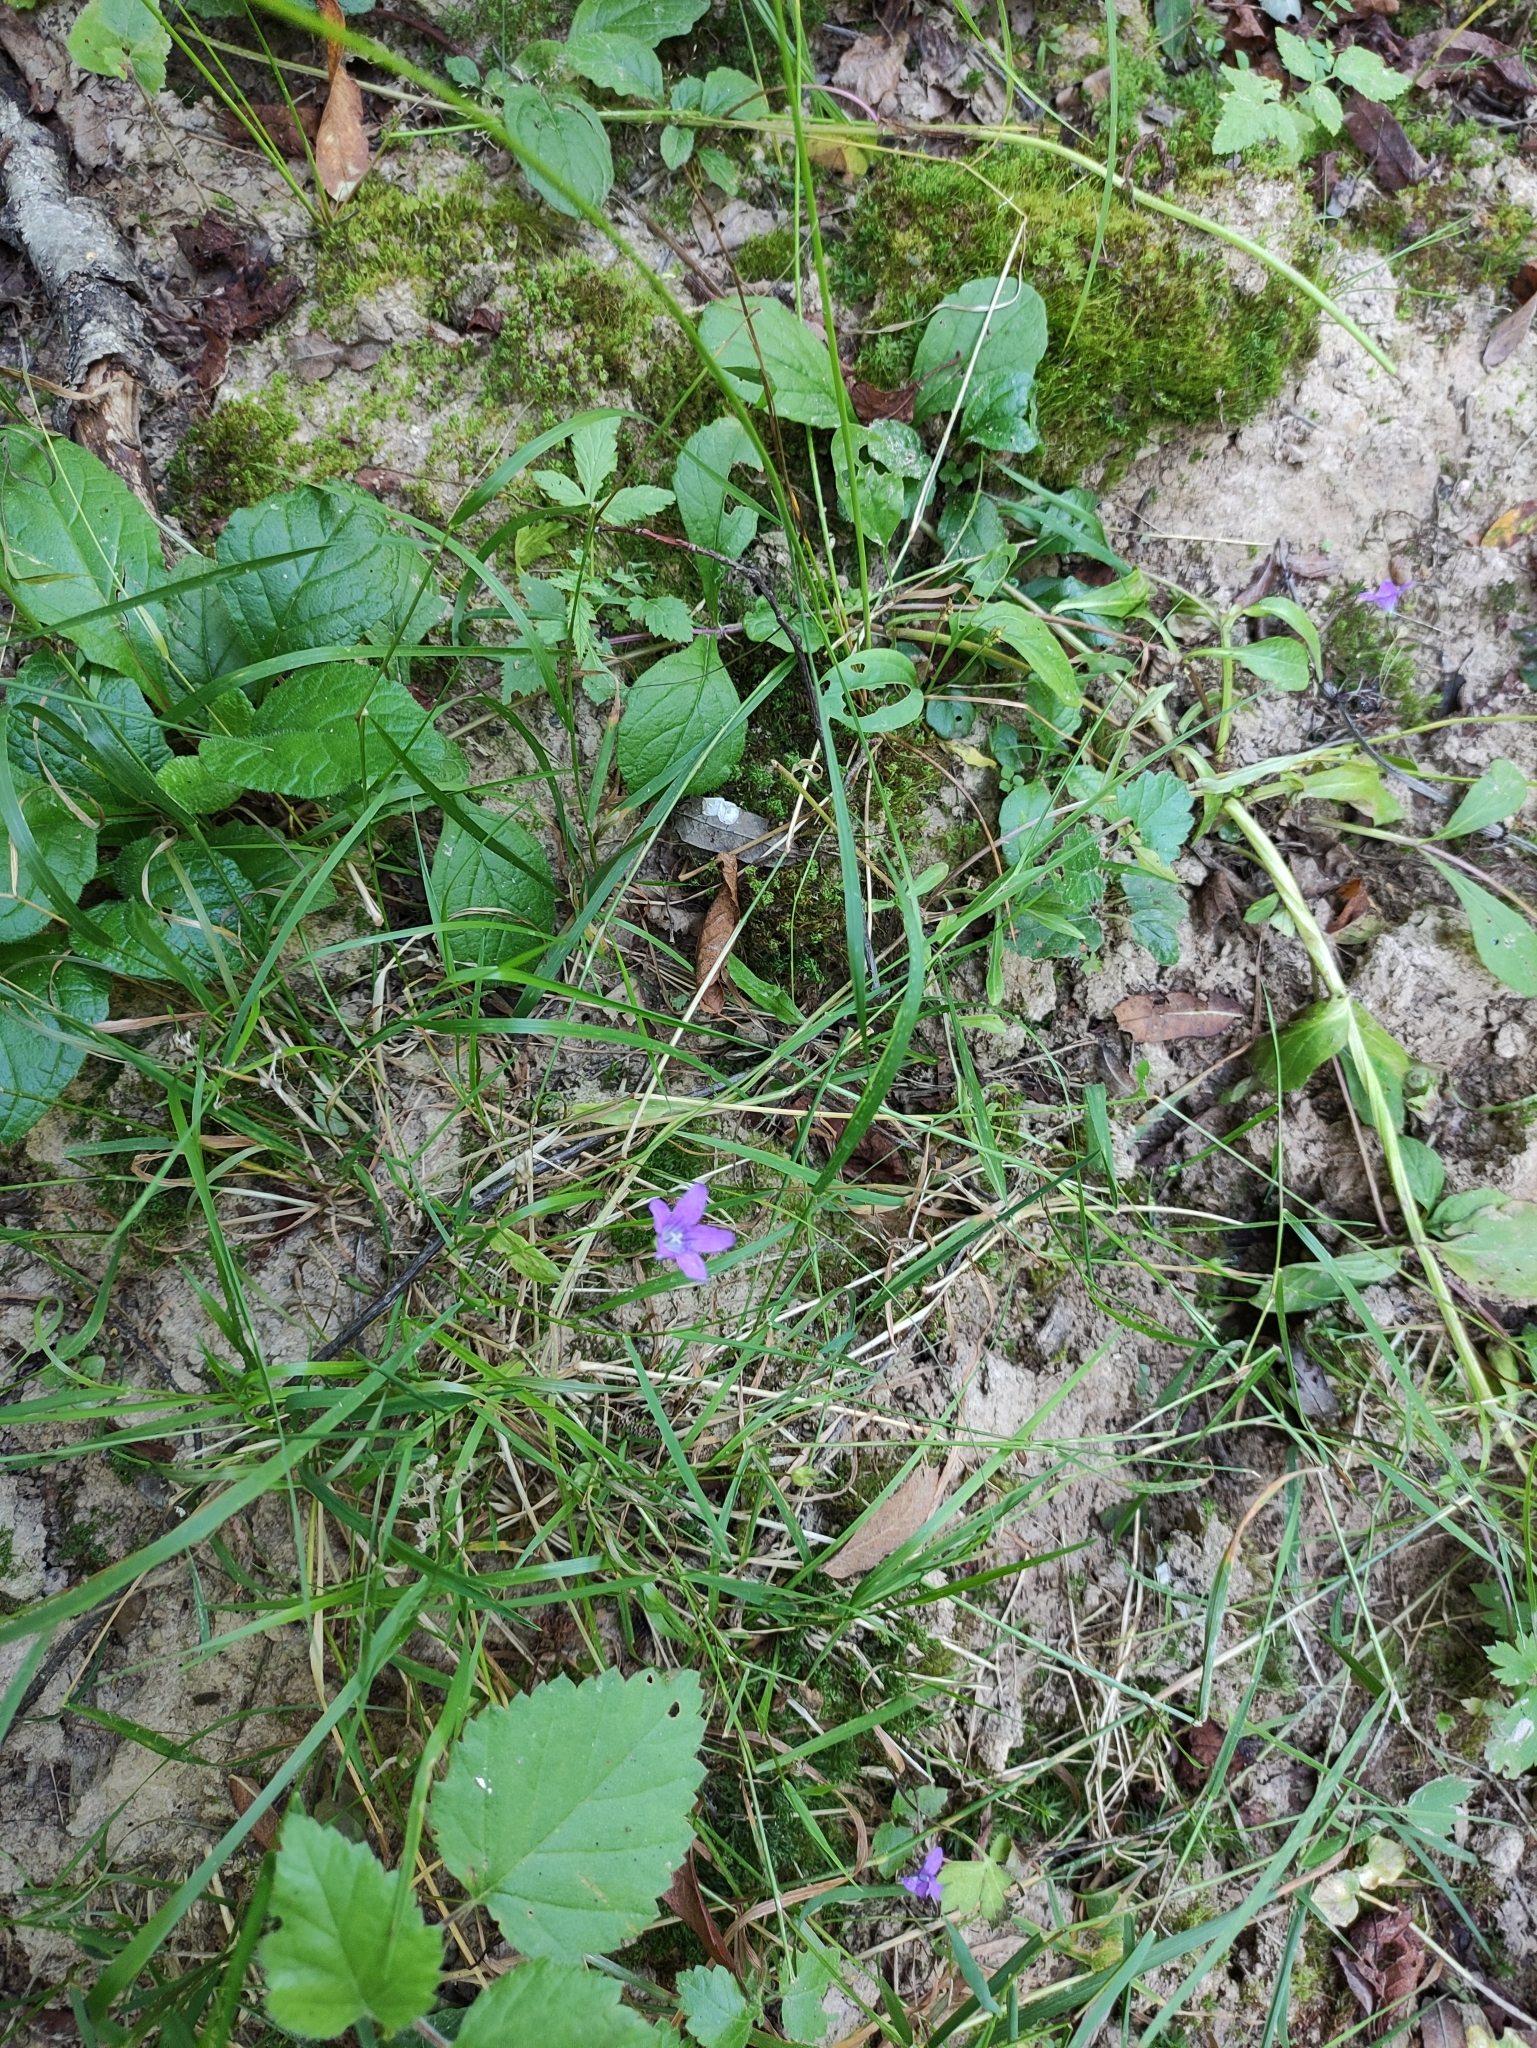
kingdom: Plantae
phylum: Tracheophyta
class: Magnoliopsida
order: Asterales
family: Campanulaceae
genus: Campanula
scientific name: Campanula patula
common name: Spreading bellflower
